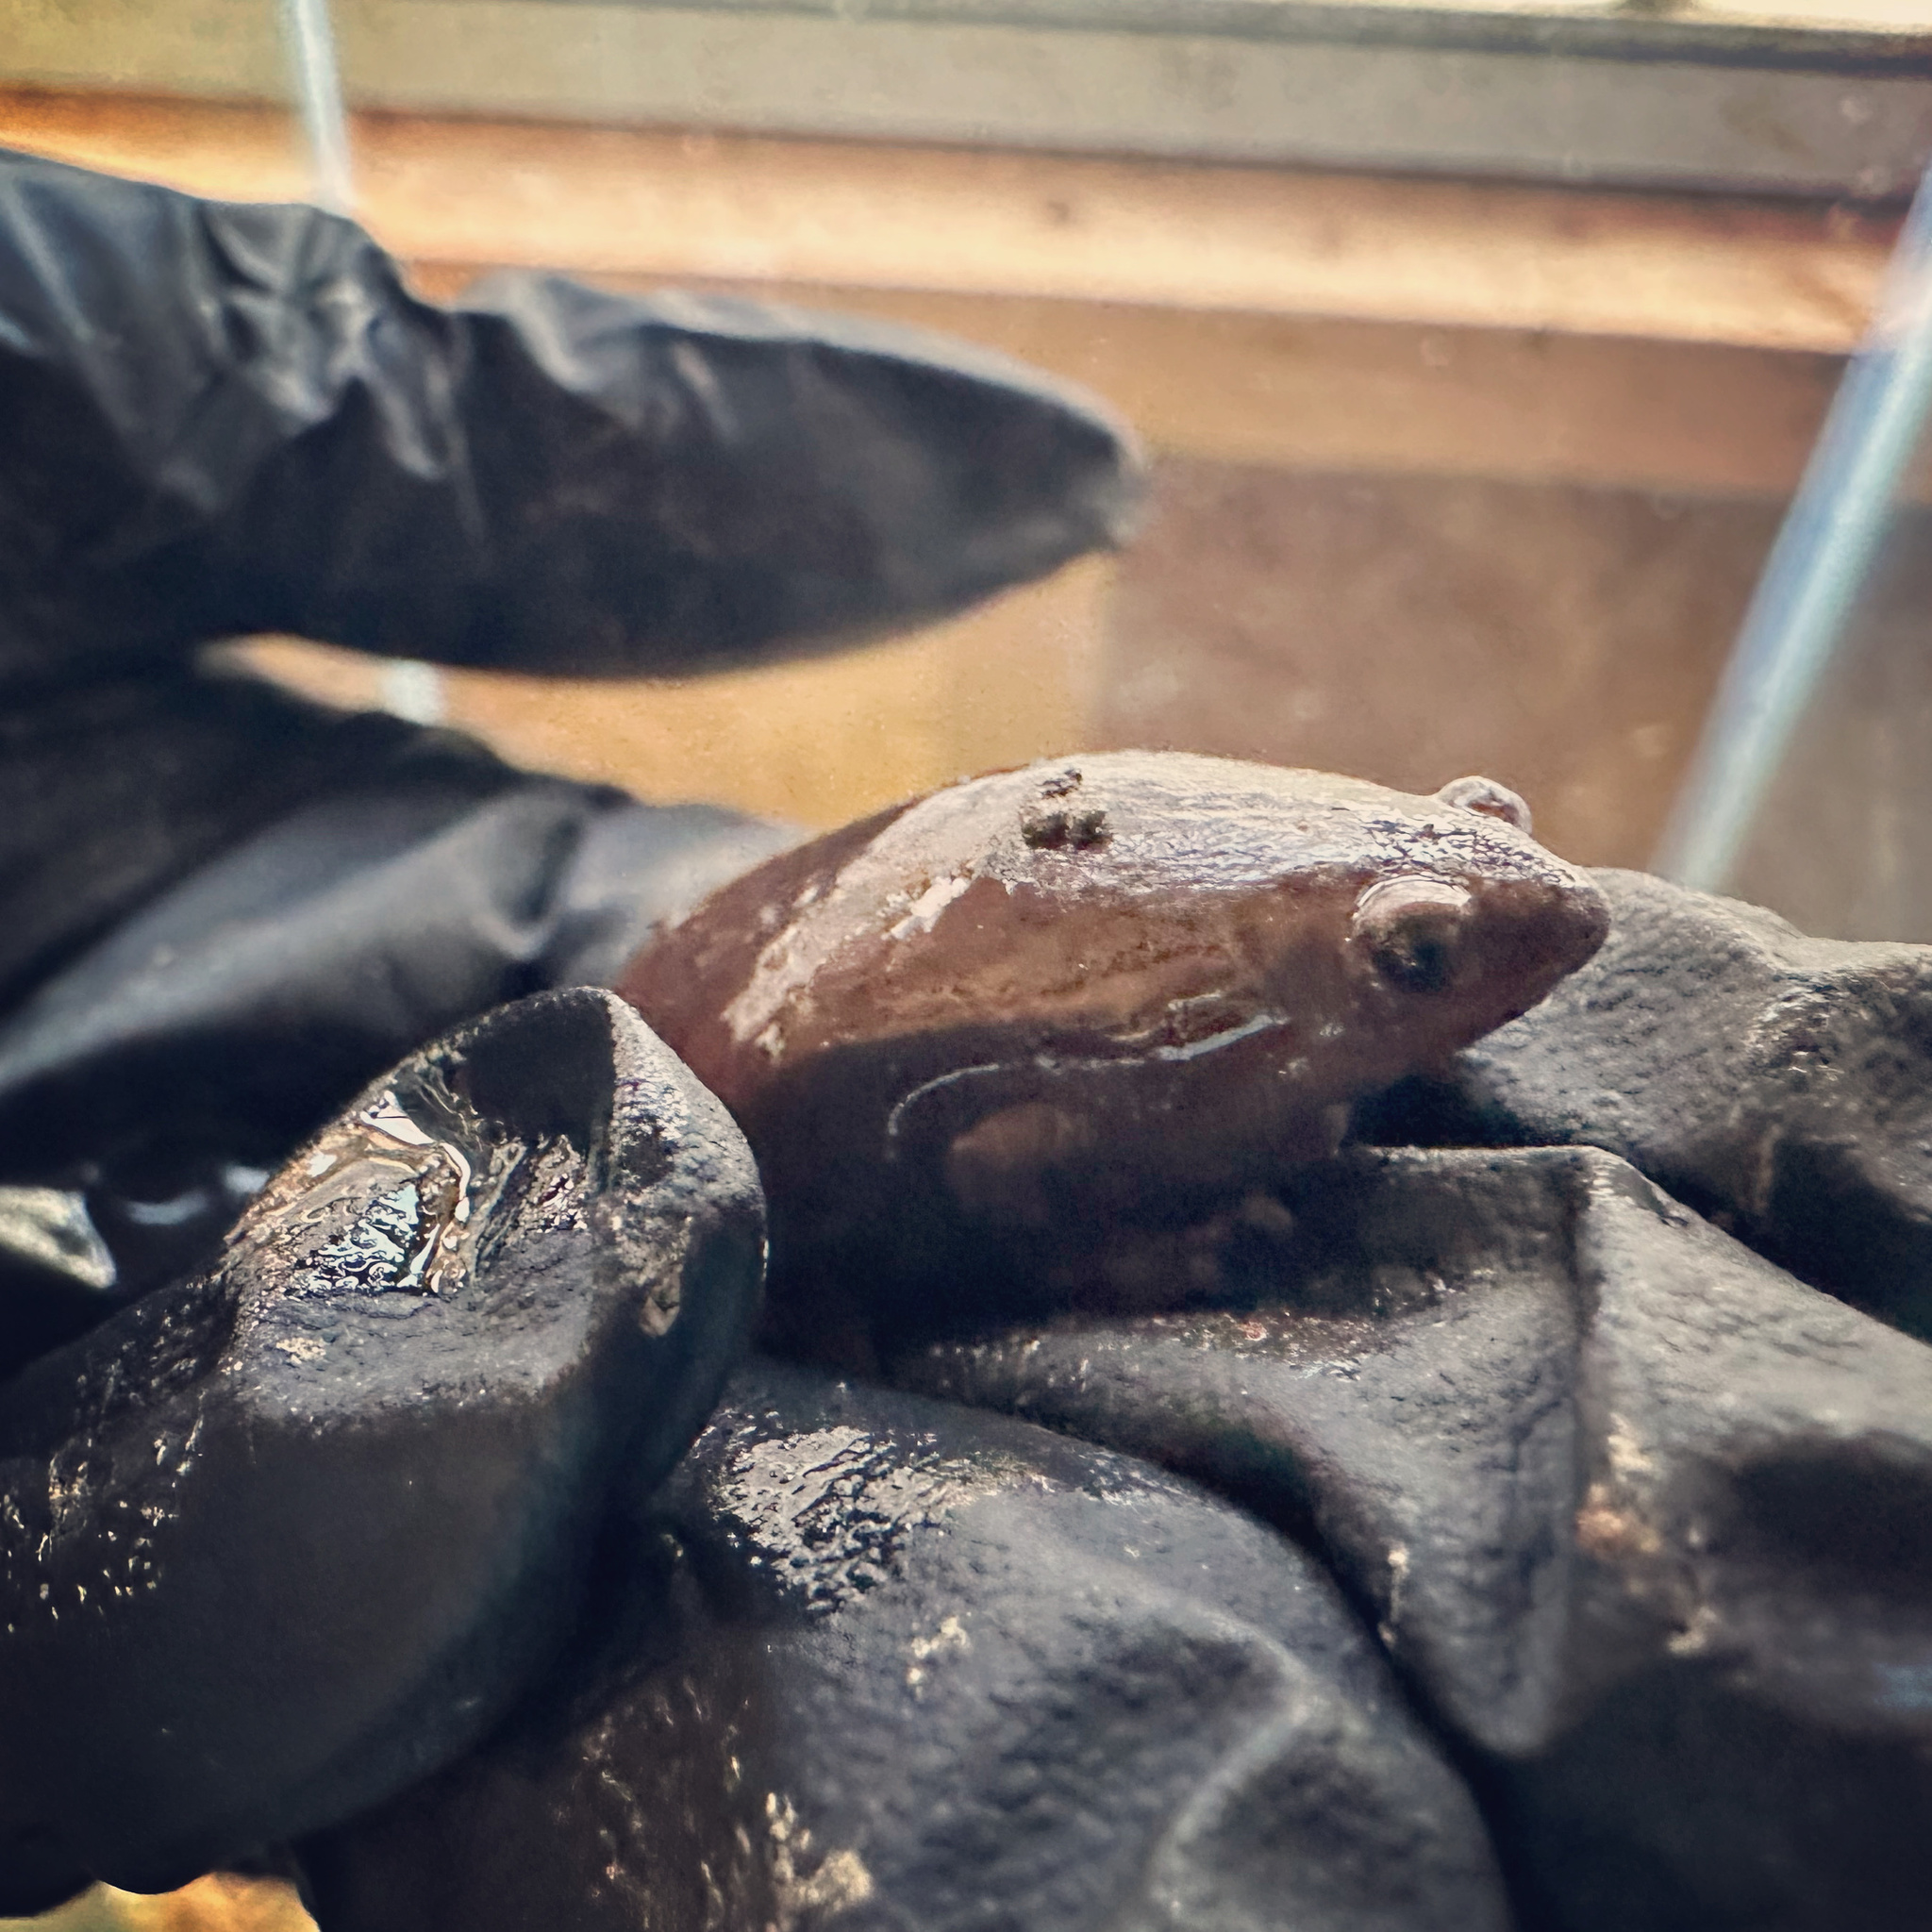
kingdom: Animalia
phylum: Chordata
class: Amphibia
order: Anura
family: Microhylidae
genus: Gastrophryne
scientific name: Gastrophryne carolinensis
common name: Eastern narrowmouth toad
